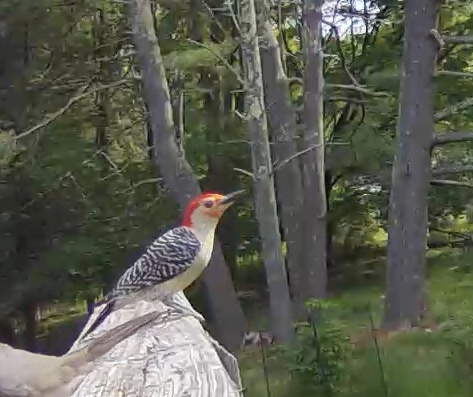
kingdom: Animalia
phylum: Chordata
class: Aves
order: Piciformes
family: Picidae
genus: Melanerpes
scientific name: Melanerpes carolinus
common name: Red-bellied woodpecker
